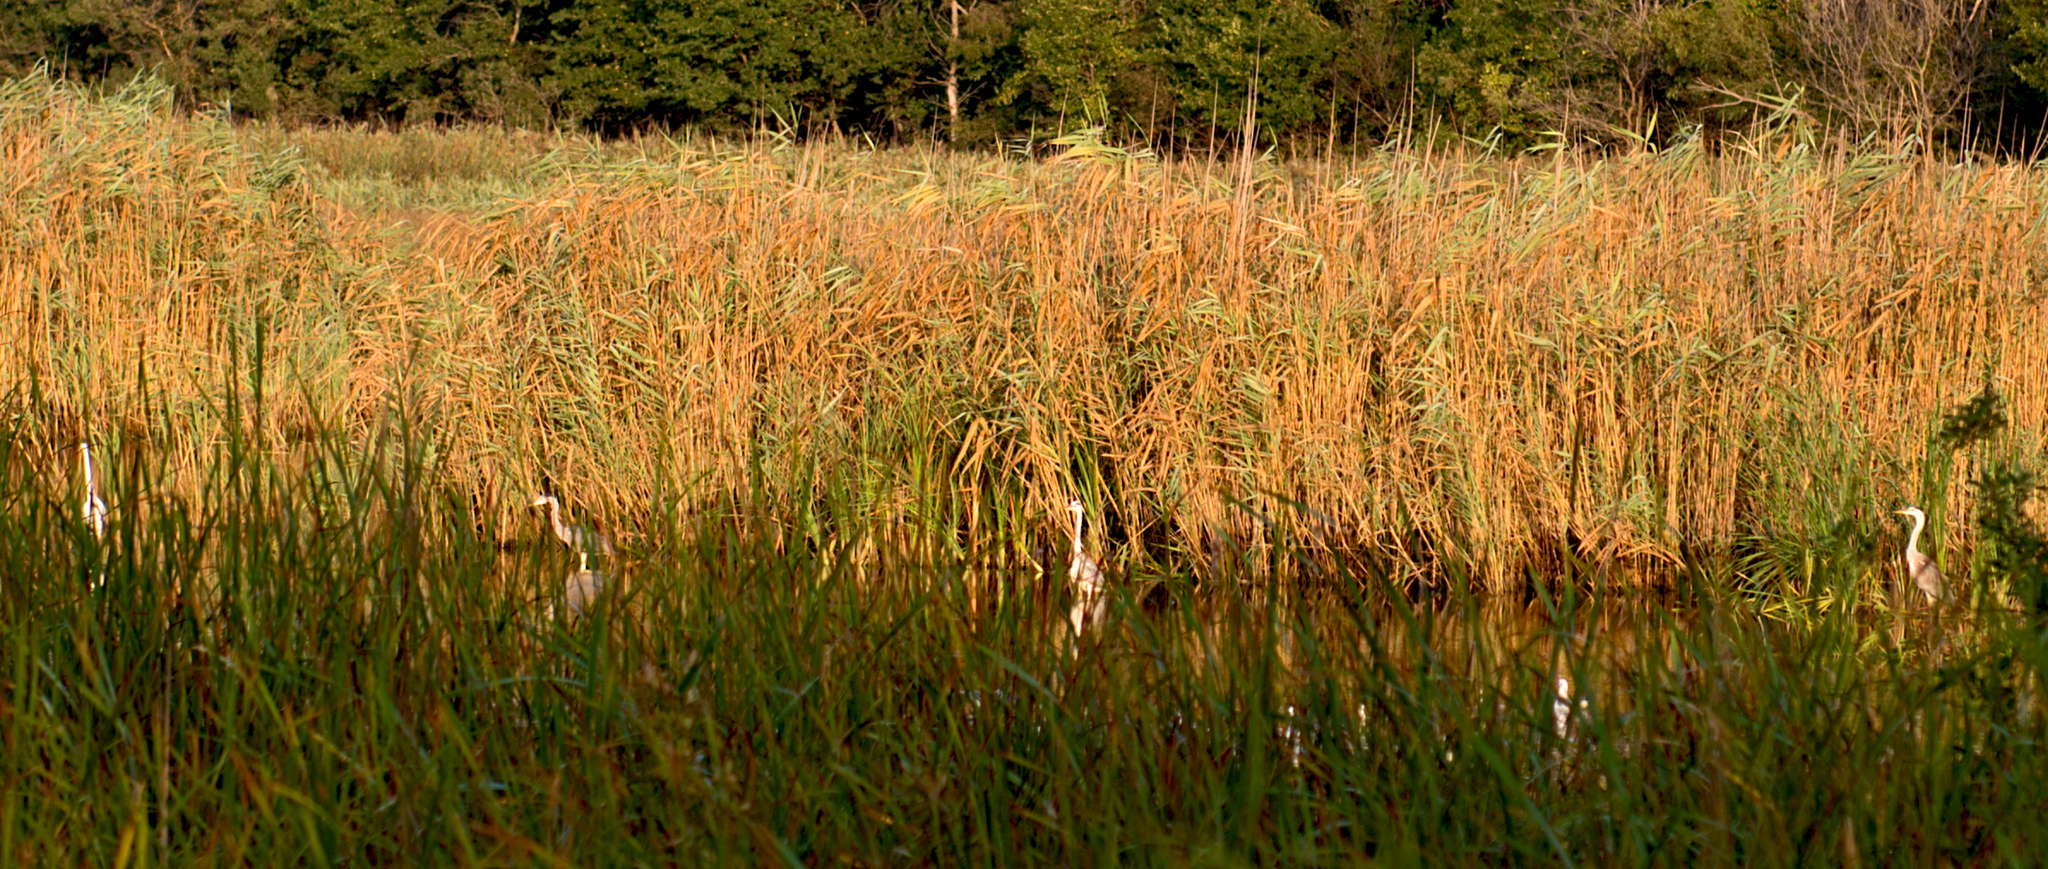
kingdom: Animalia
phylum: Chordata
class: Aves
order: Pelecaniformes
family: Ardeidae
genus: Ardea
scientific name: Ardea cinerea
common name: Grey heron
